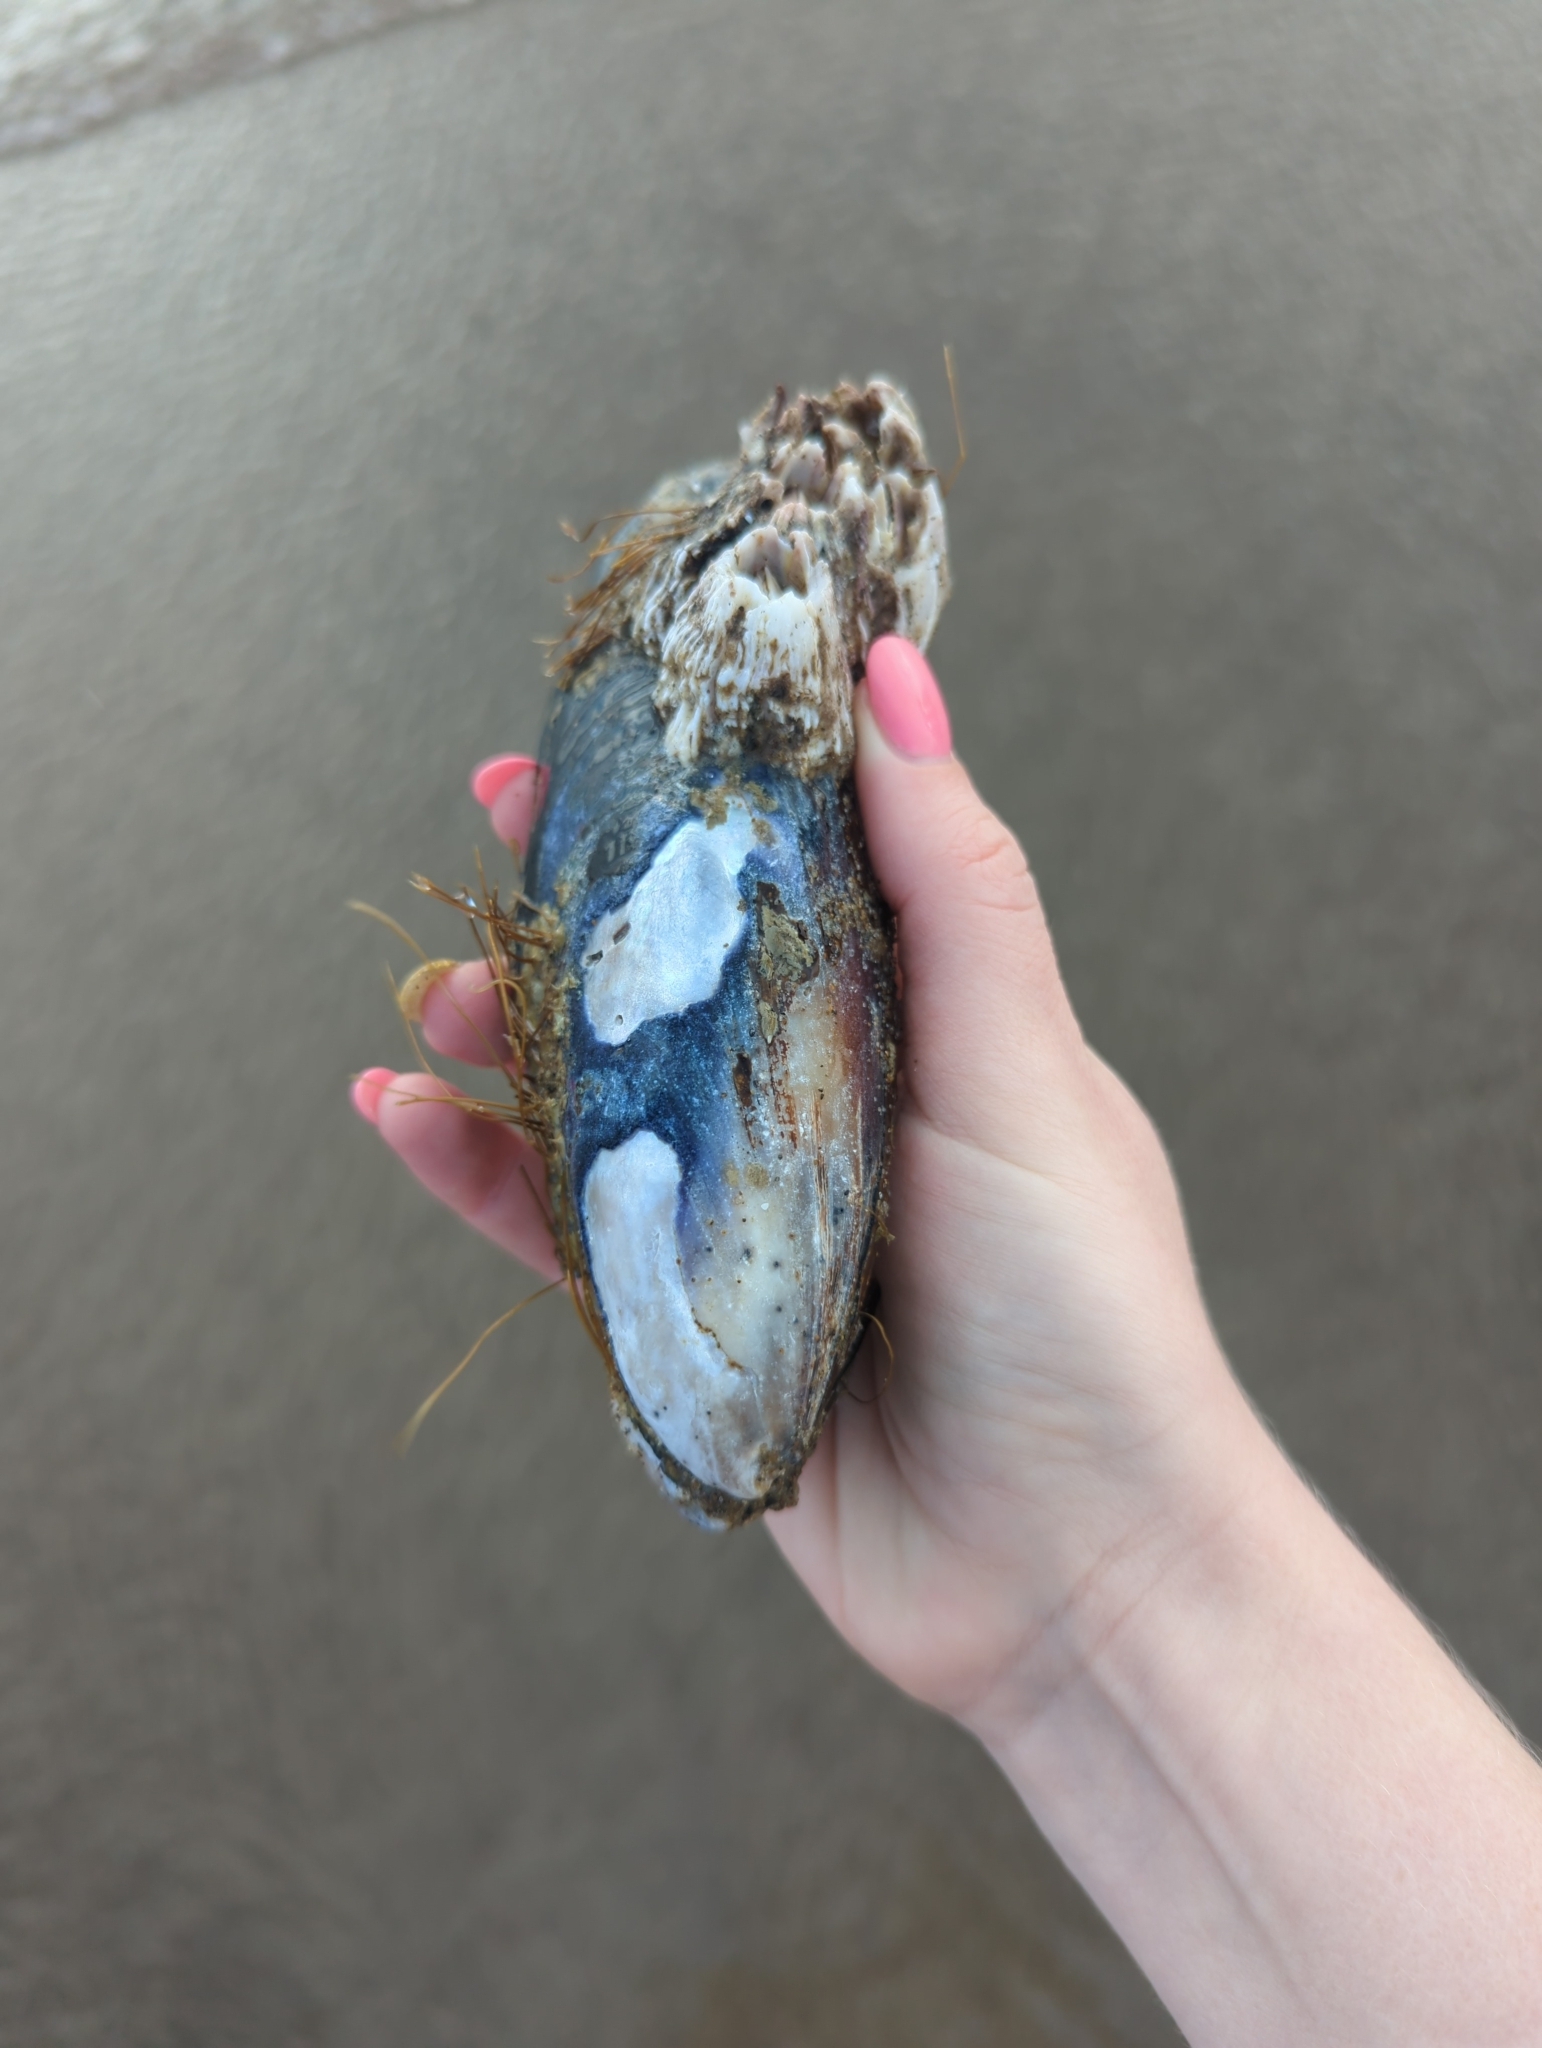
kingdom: Animalia
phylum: Mollusca
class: Bivalvia
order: Mytilida
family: Mytilidae
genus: Mytilus
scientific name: Mytilus californianus
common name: California mussel
